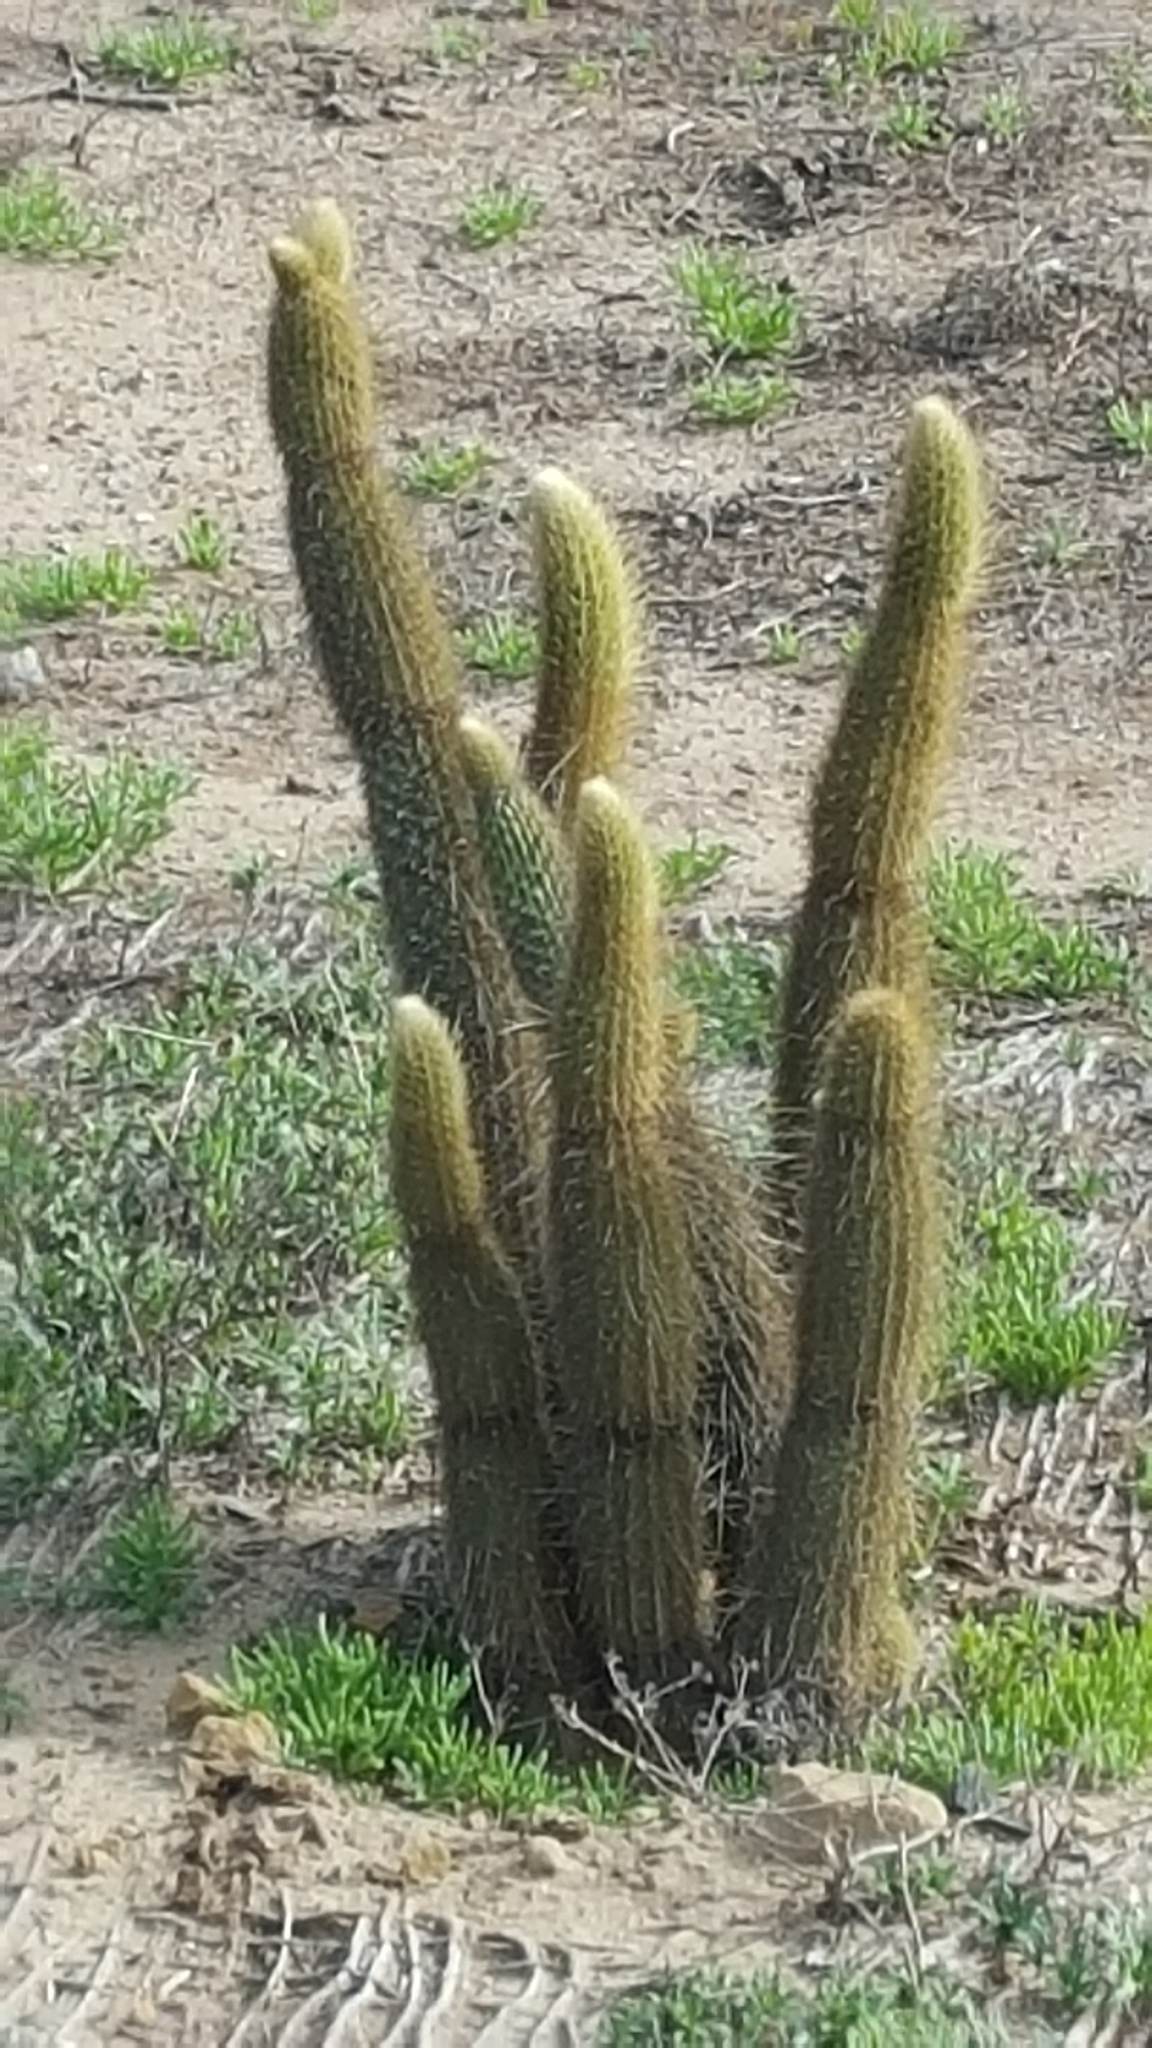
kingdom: Plantae
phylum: Tracheophyta
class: Magnoliopsida
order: Caryophyllales
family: Cactaceae
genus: Bergerocactus
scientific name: Bergerocactus emoryi
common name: Golden snakecactus
